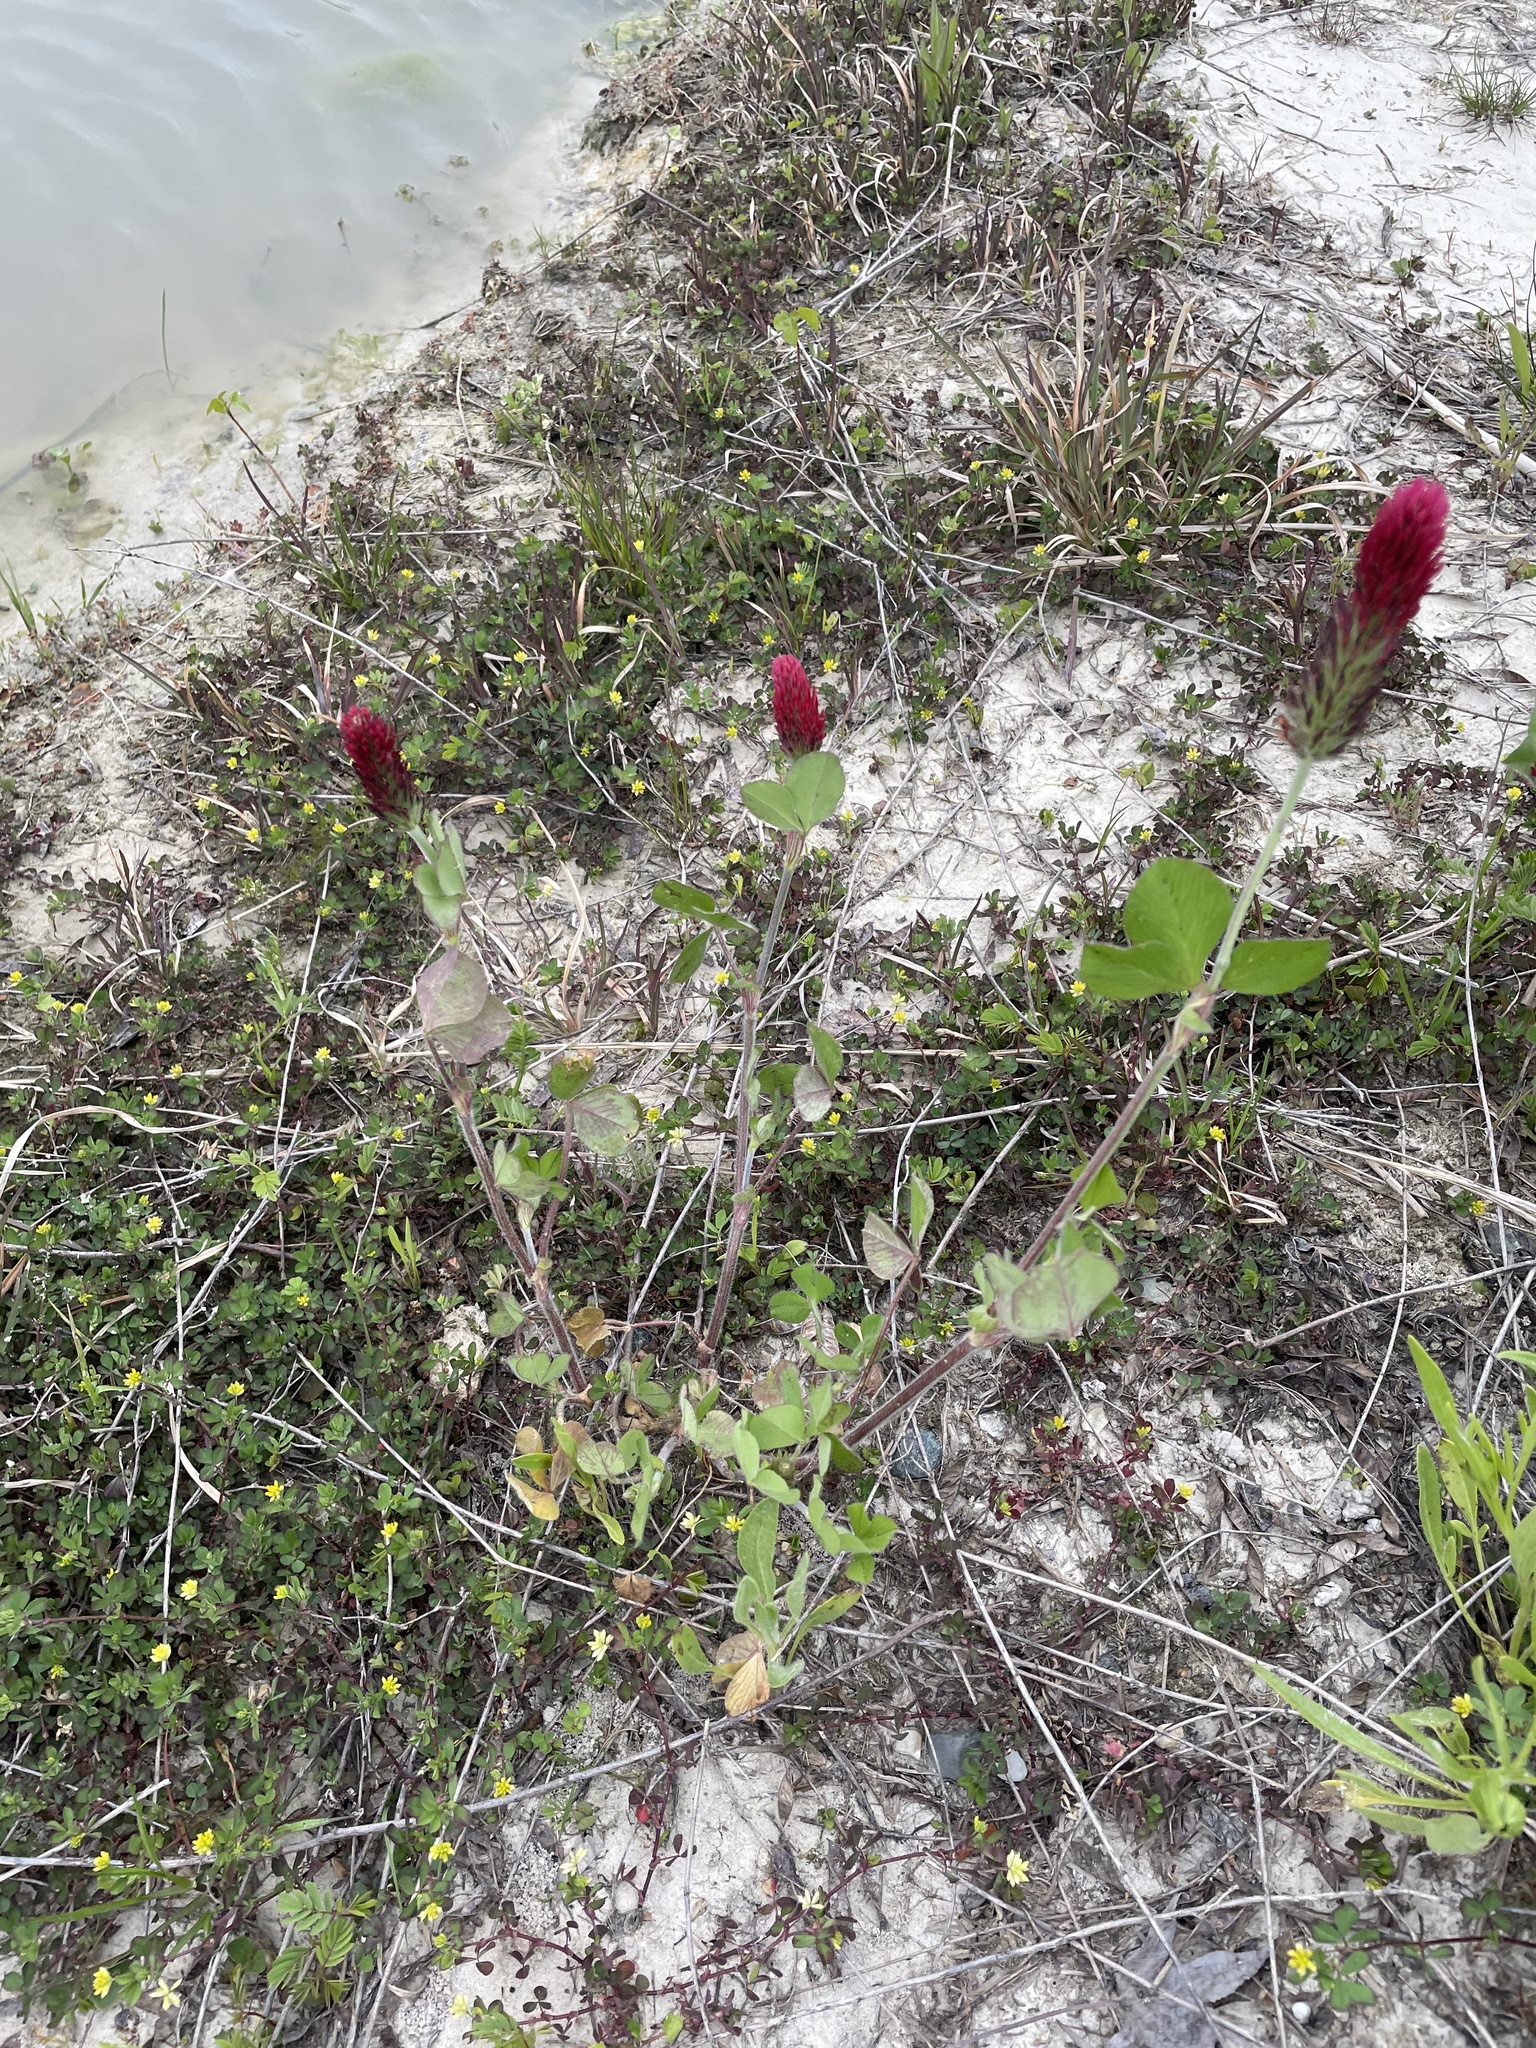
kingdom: Plantae
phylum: Tracheophyta
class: Magnoliopsida
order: Fabales
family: Fabaceae
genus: Trifolium
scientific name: Trifolium incarnatum
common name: Crimson clover
